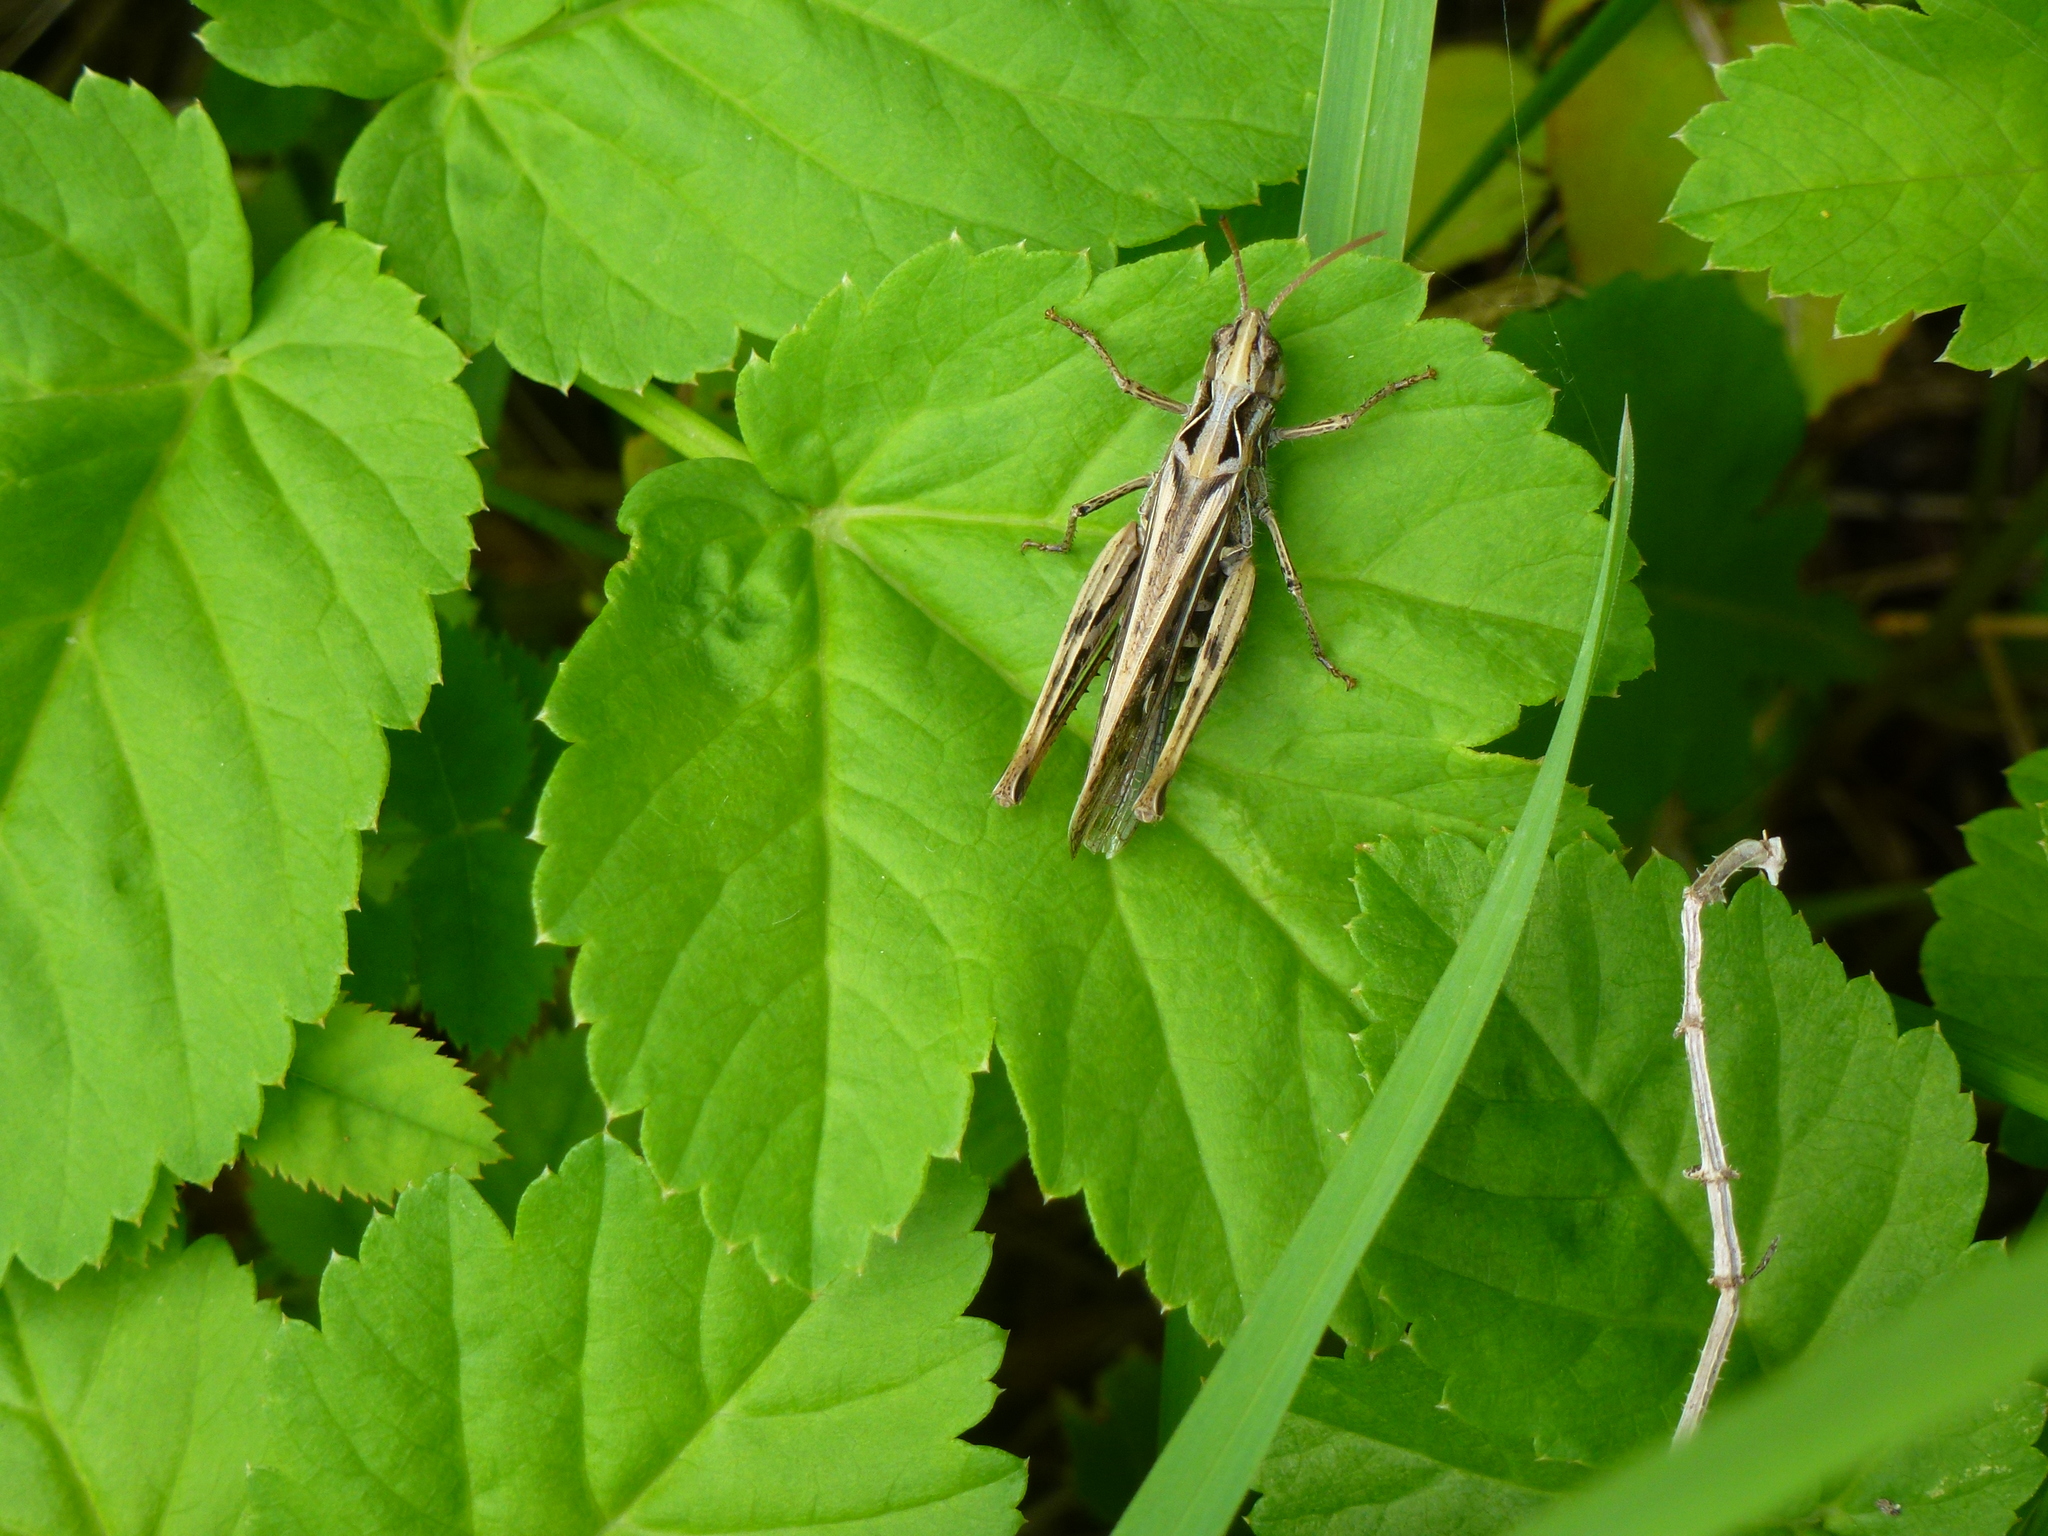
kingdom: Animalia
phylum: Arthropoda
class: Insecta
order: Orthoptera
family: Acrididae
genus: Chorthippus
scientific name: Chorthippus brunneus
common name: Field grasshopper
